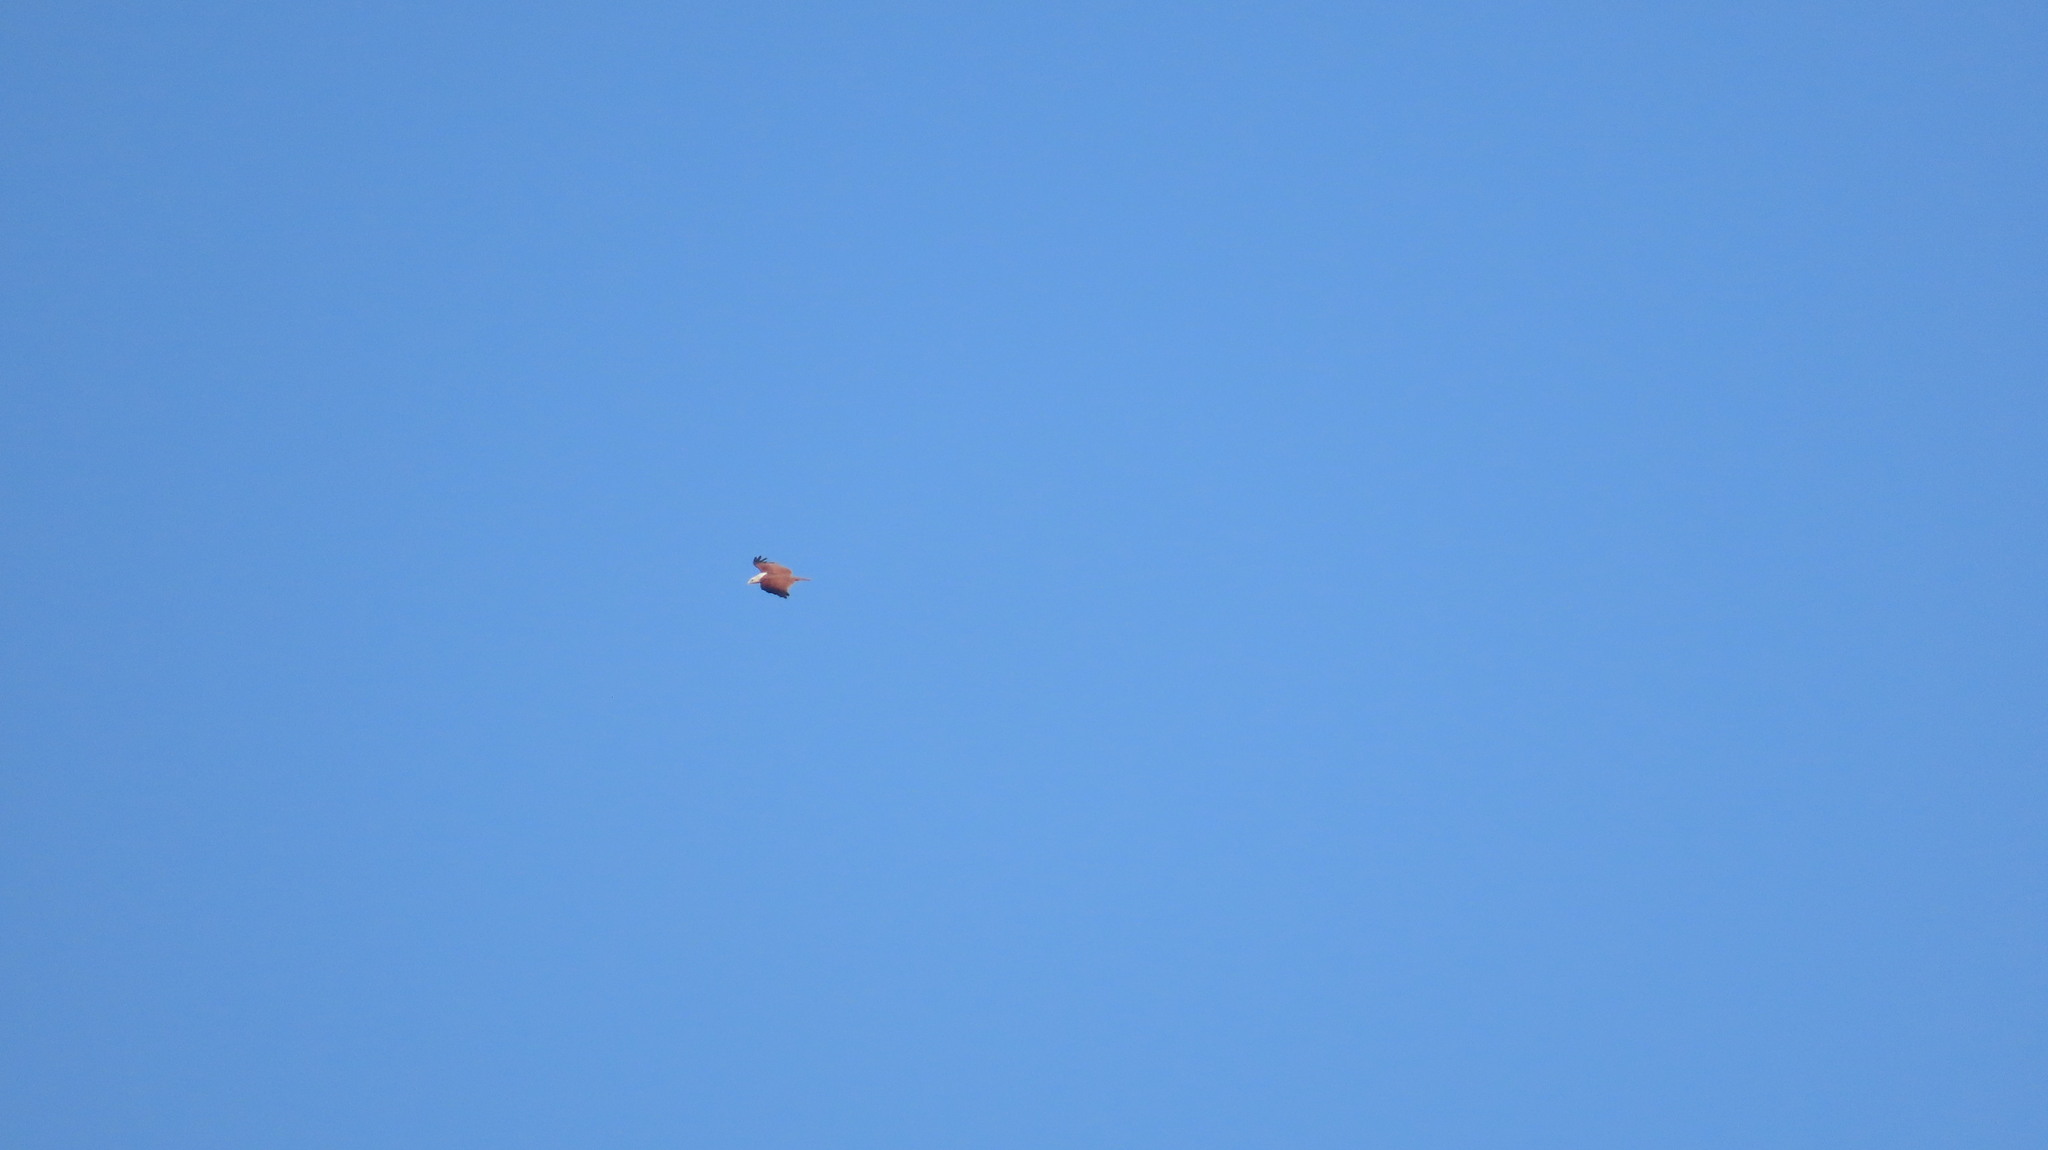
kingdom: Animalia
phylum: Chordata
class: Aves
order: Accipitriformes
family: Accipitridae
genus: Haliastur
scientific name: Haliastur indus
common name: Brahminy kite
